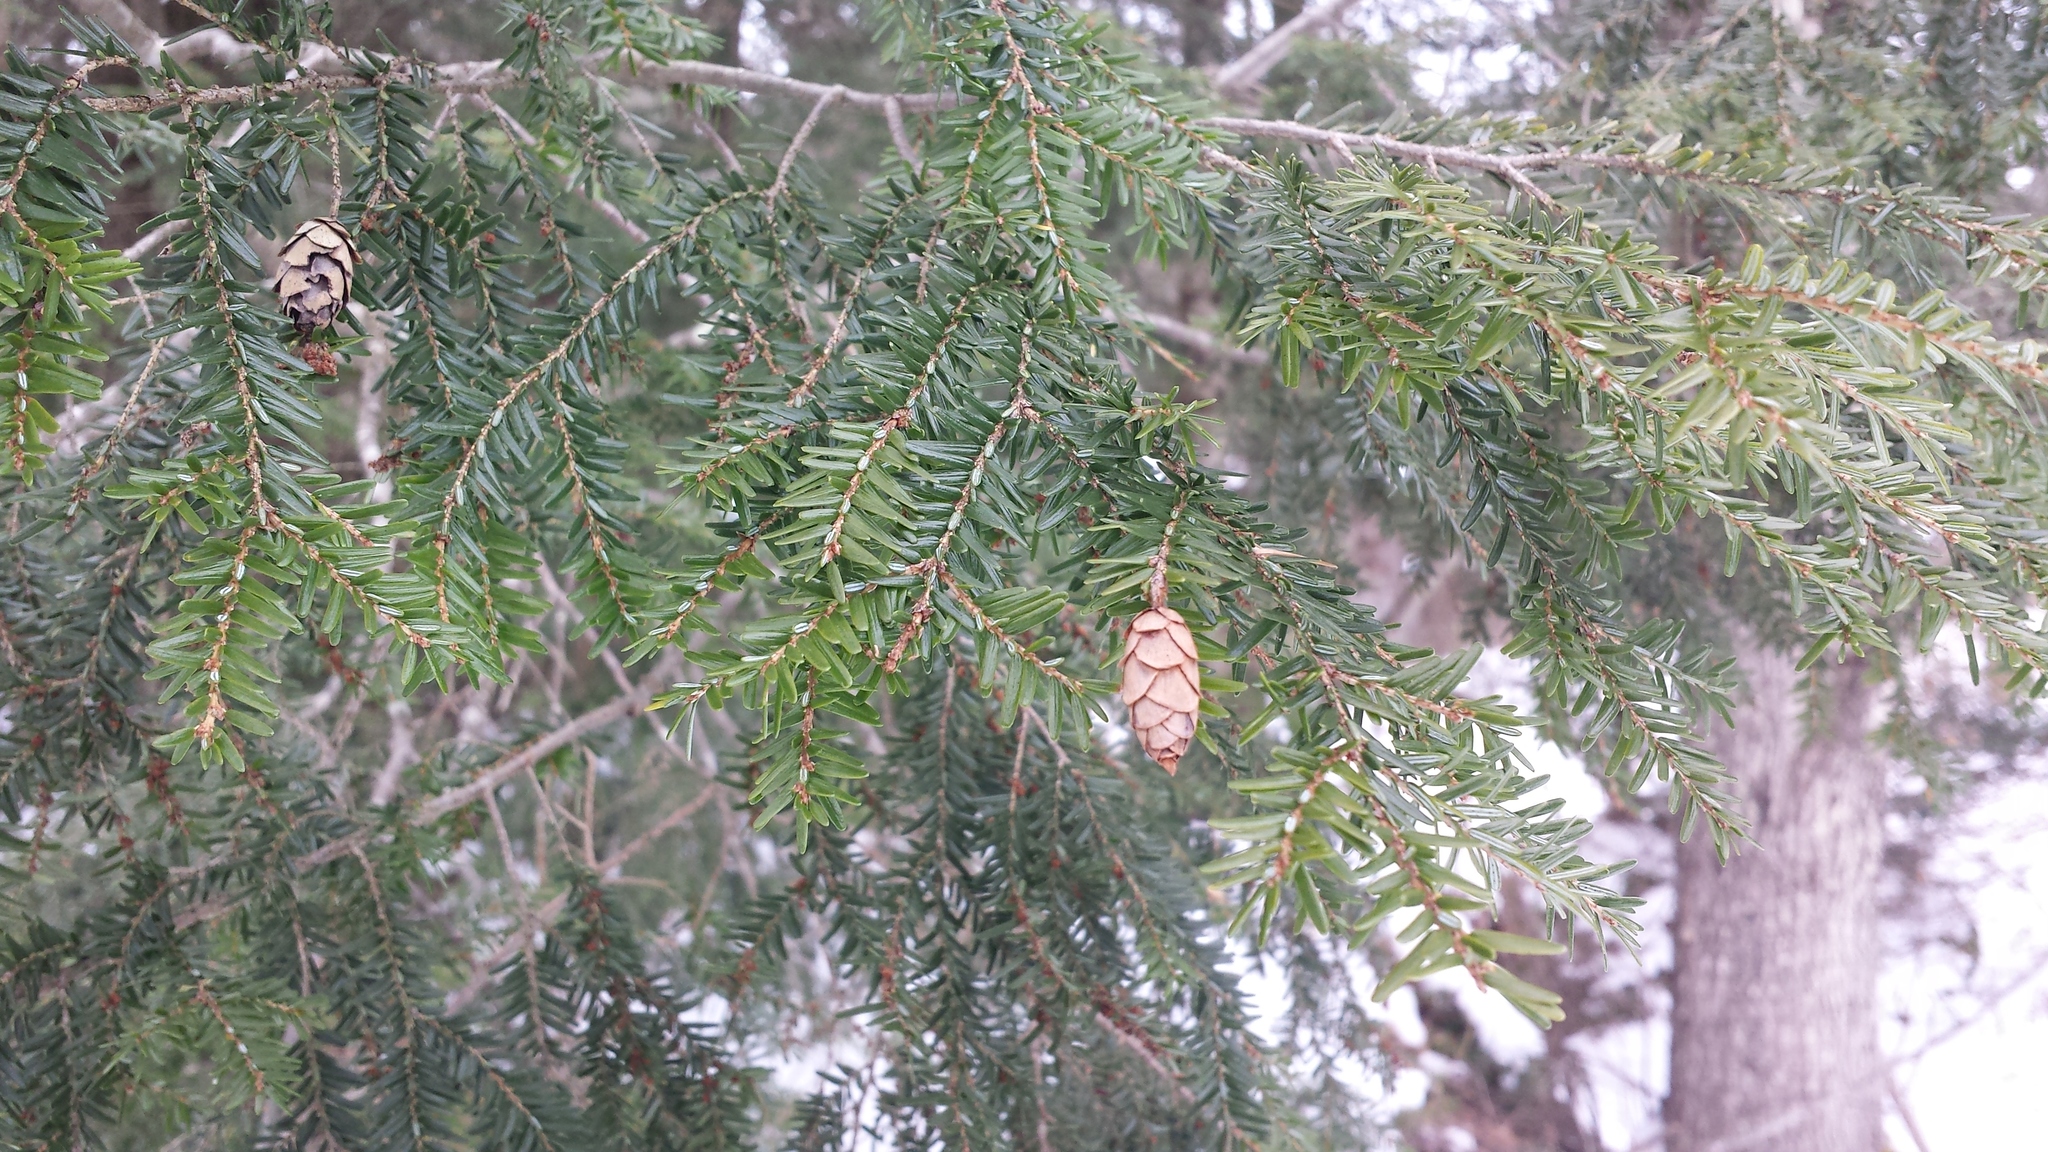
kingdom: Plantae
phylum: Tracheophyta
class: Pinopsida
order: Pinales
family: Pinaceae
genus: Tsuga
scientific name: Tsuga canadensis
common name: Eastern hemlock
